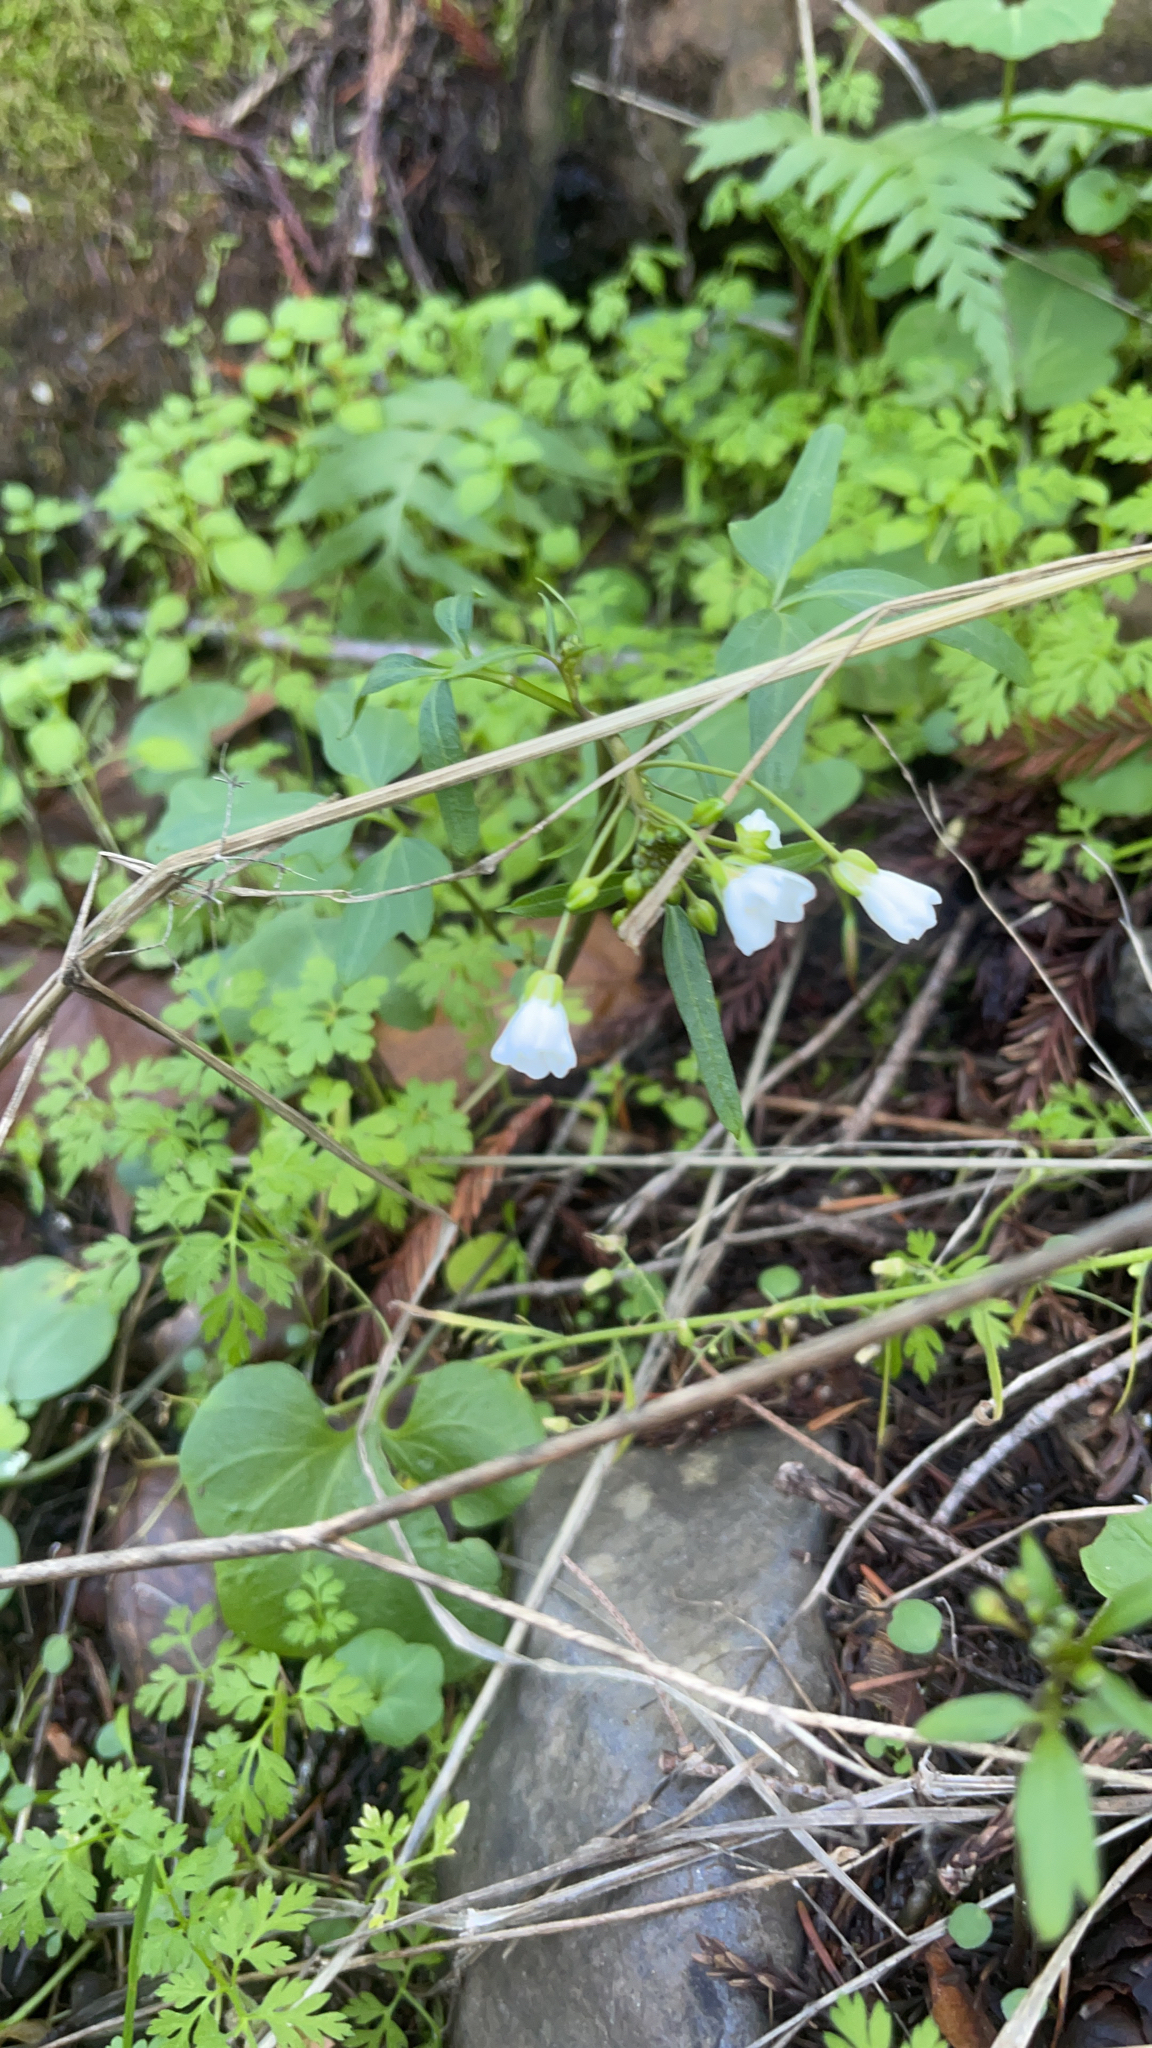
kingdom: Plantae
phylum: Tracheophyta
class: Magnoliopsida
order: Brassicales
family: Brassicaceae
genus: Cardamine
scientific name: Cardamine californica
